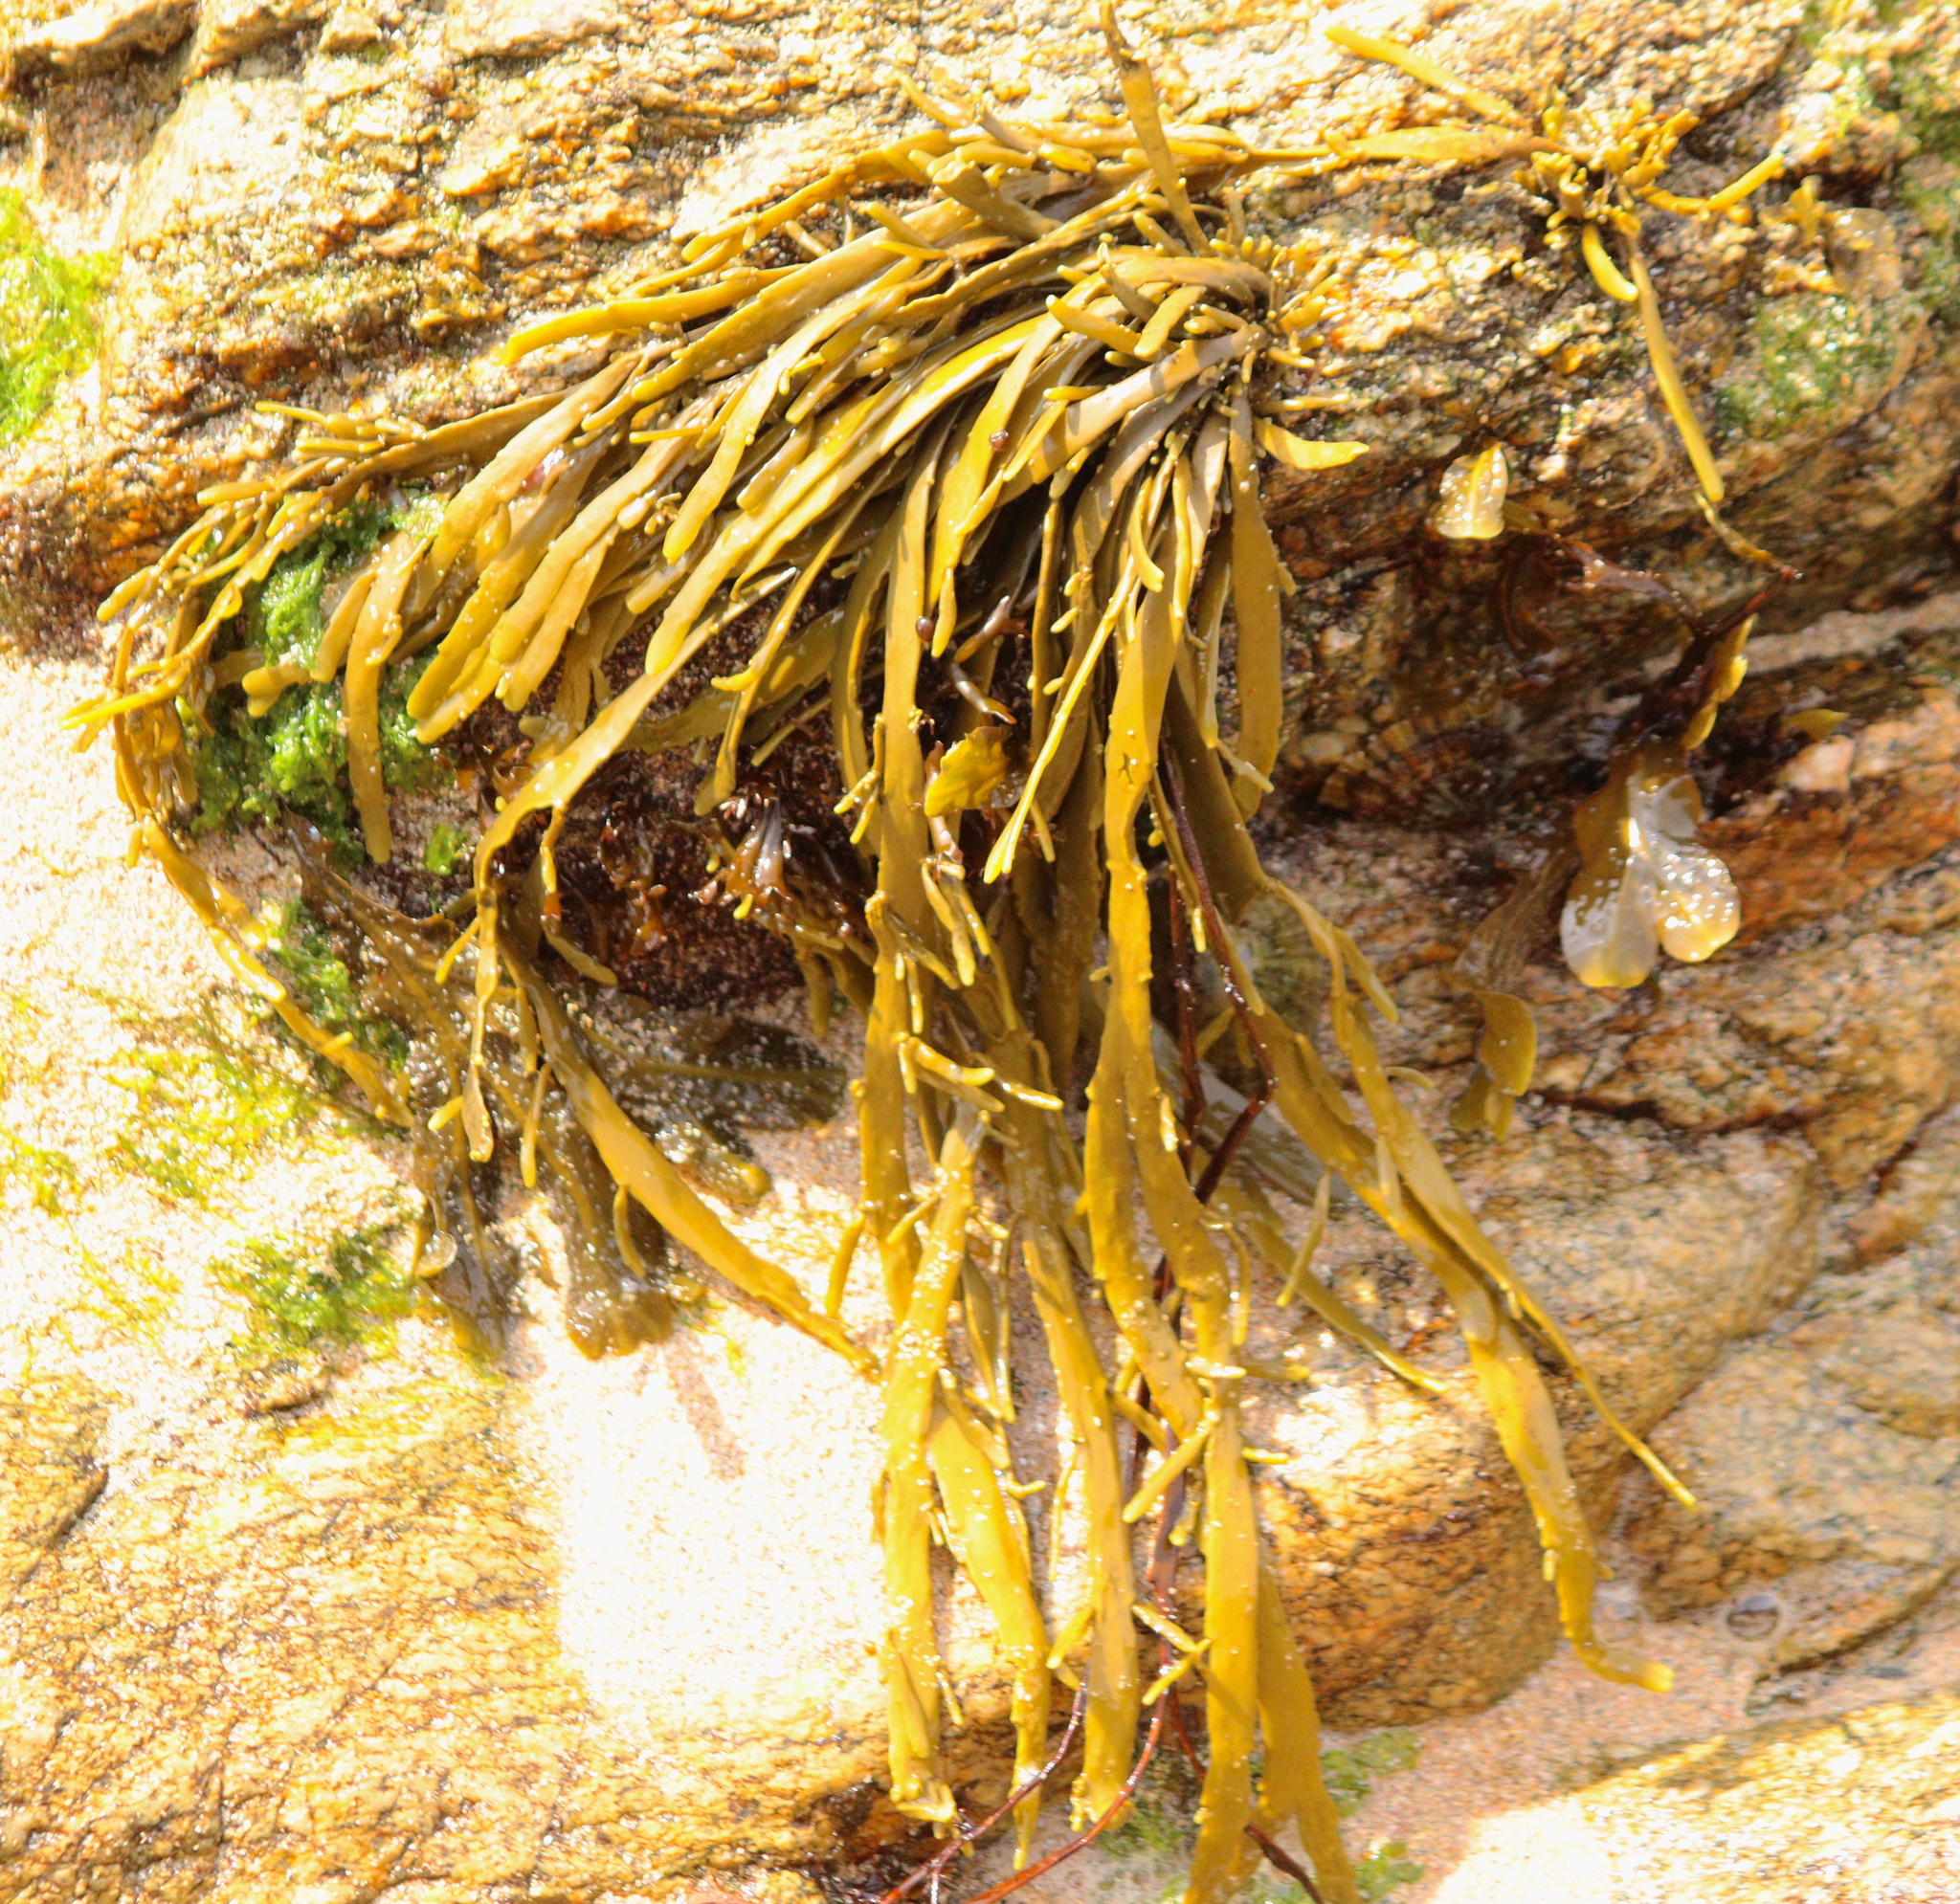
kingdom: Chromista
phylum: Ochrophyta
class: Phaeophyceae
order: Fucales
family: Fucaceae
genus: Ascophyllum
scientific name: Ascophyllum nodosum
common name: Knotted wrack
